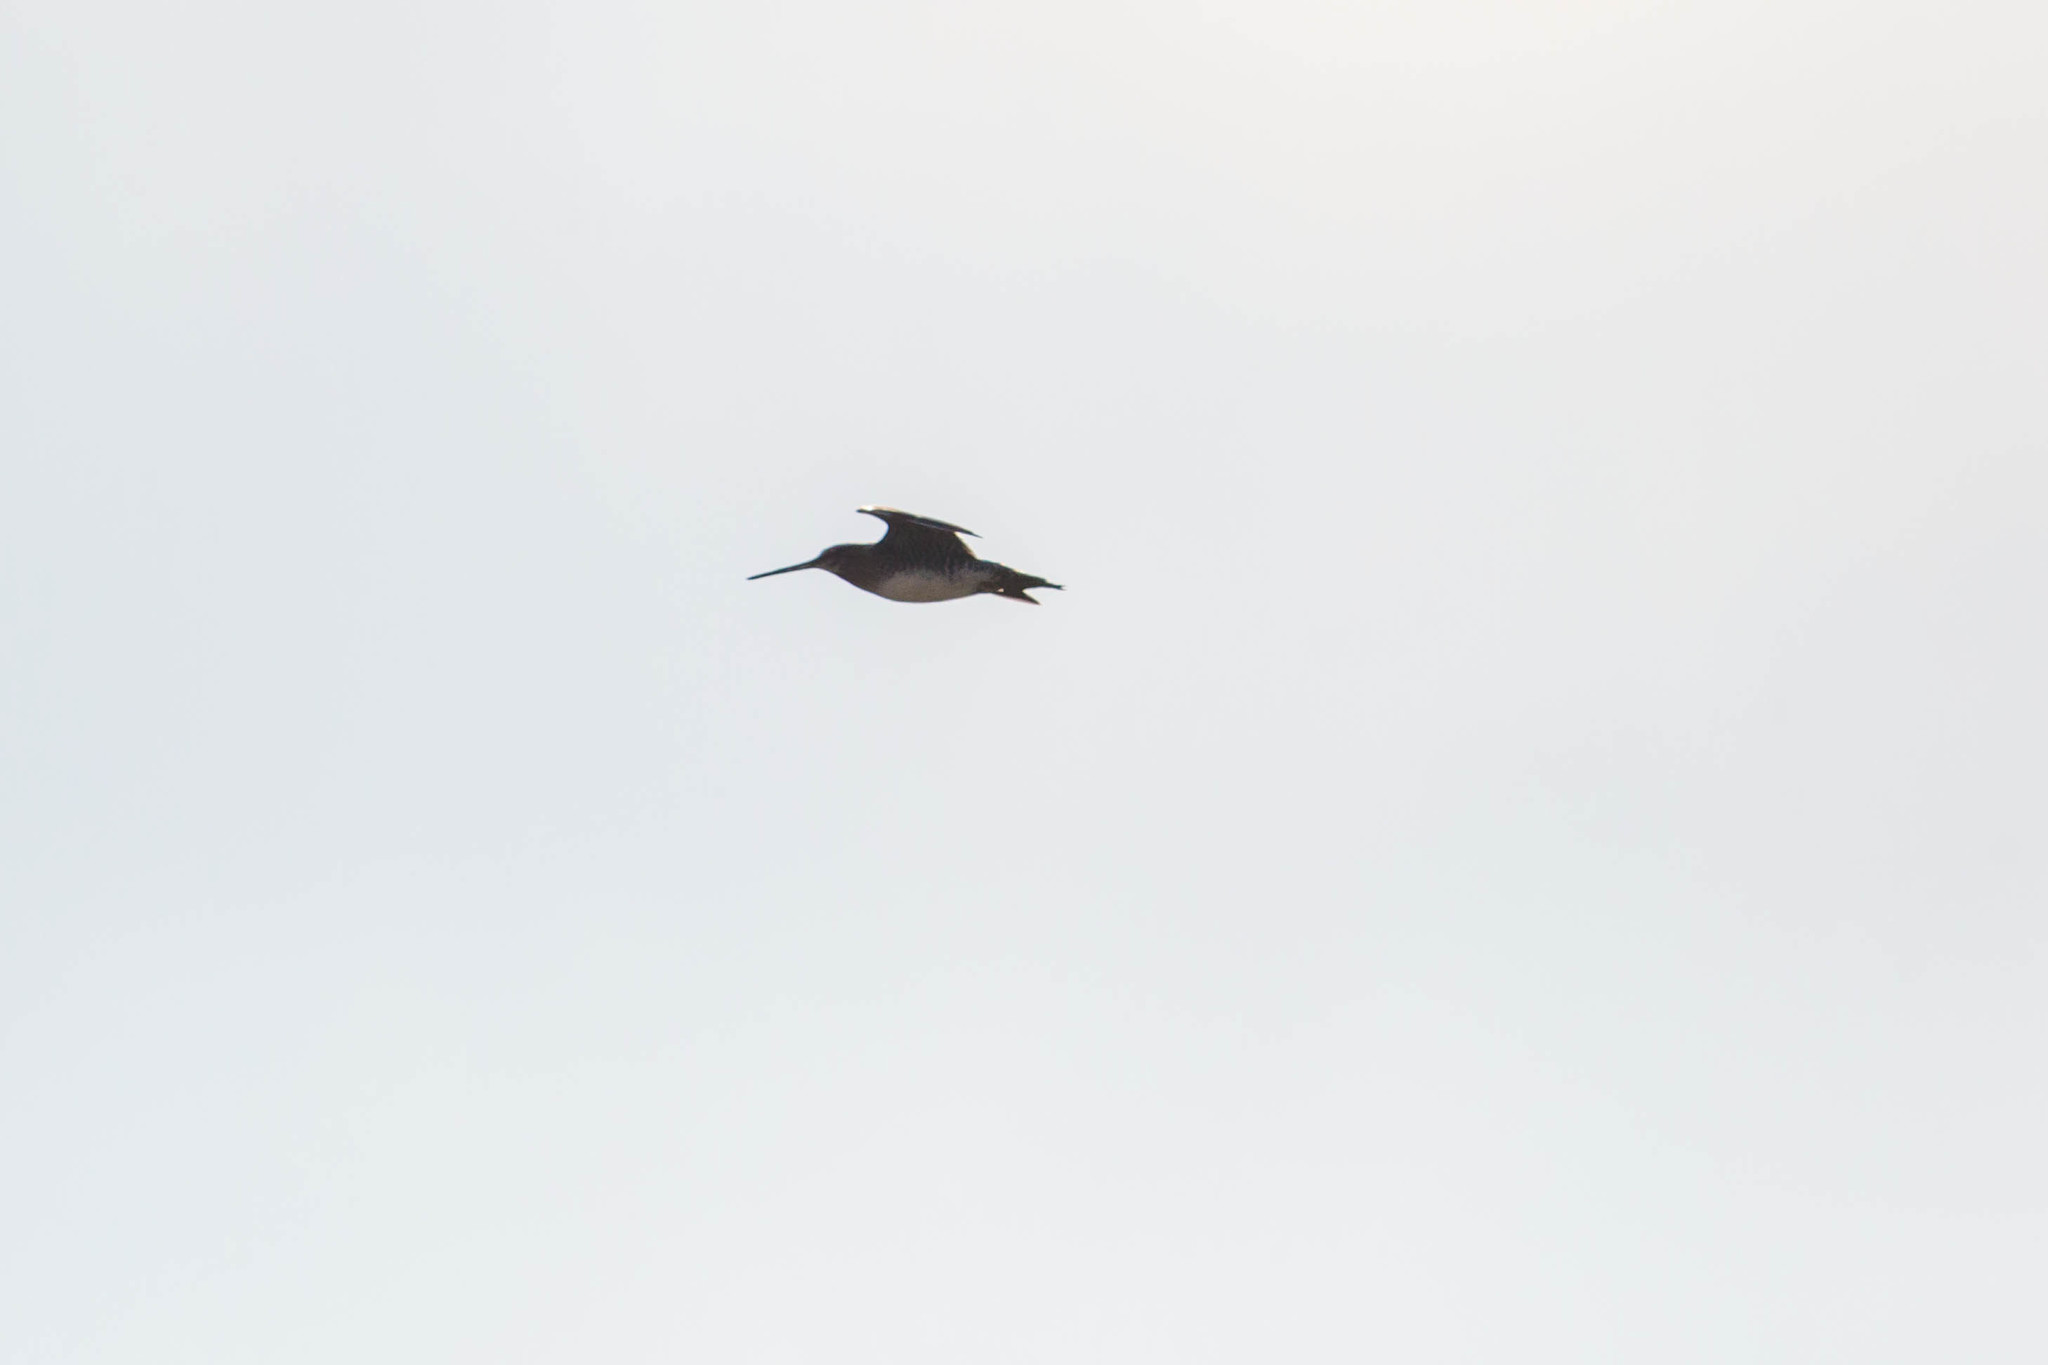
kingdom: Animalia
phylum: Chordata
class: Aves
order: Charadriiformes
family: Scolopacidae
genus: Gallinago
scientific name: Gallinago delicata
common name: Wilson's snipe
